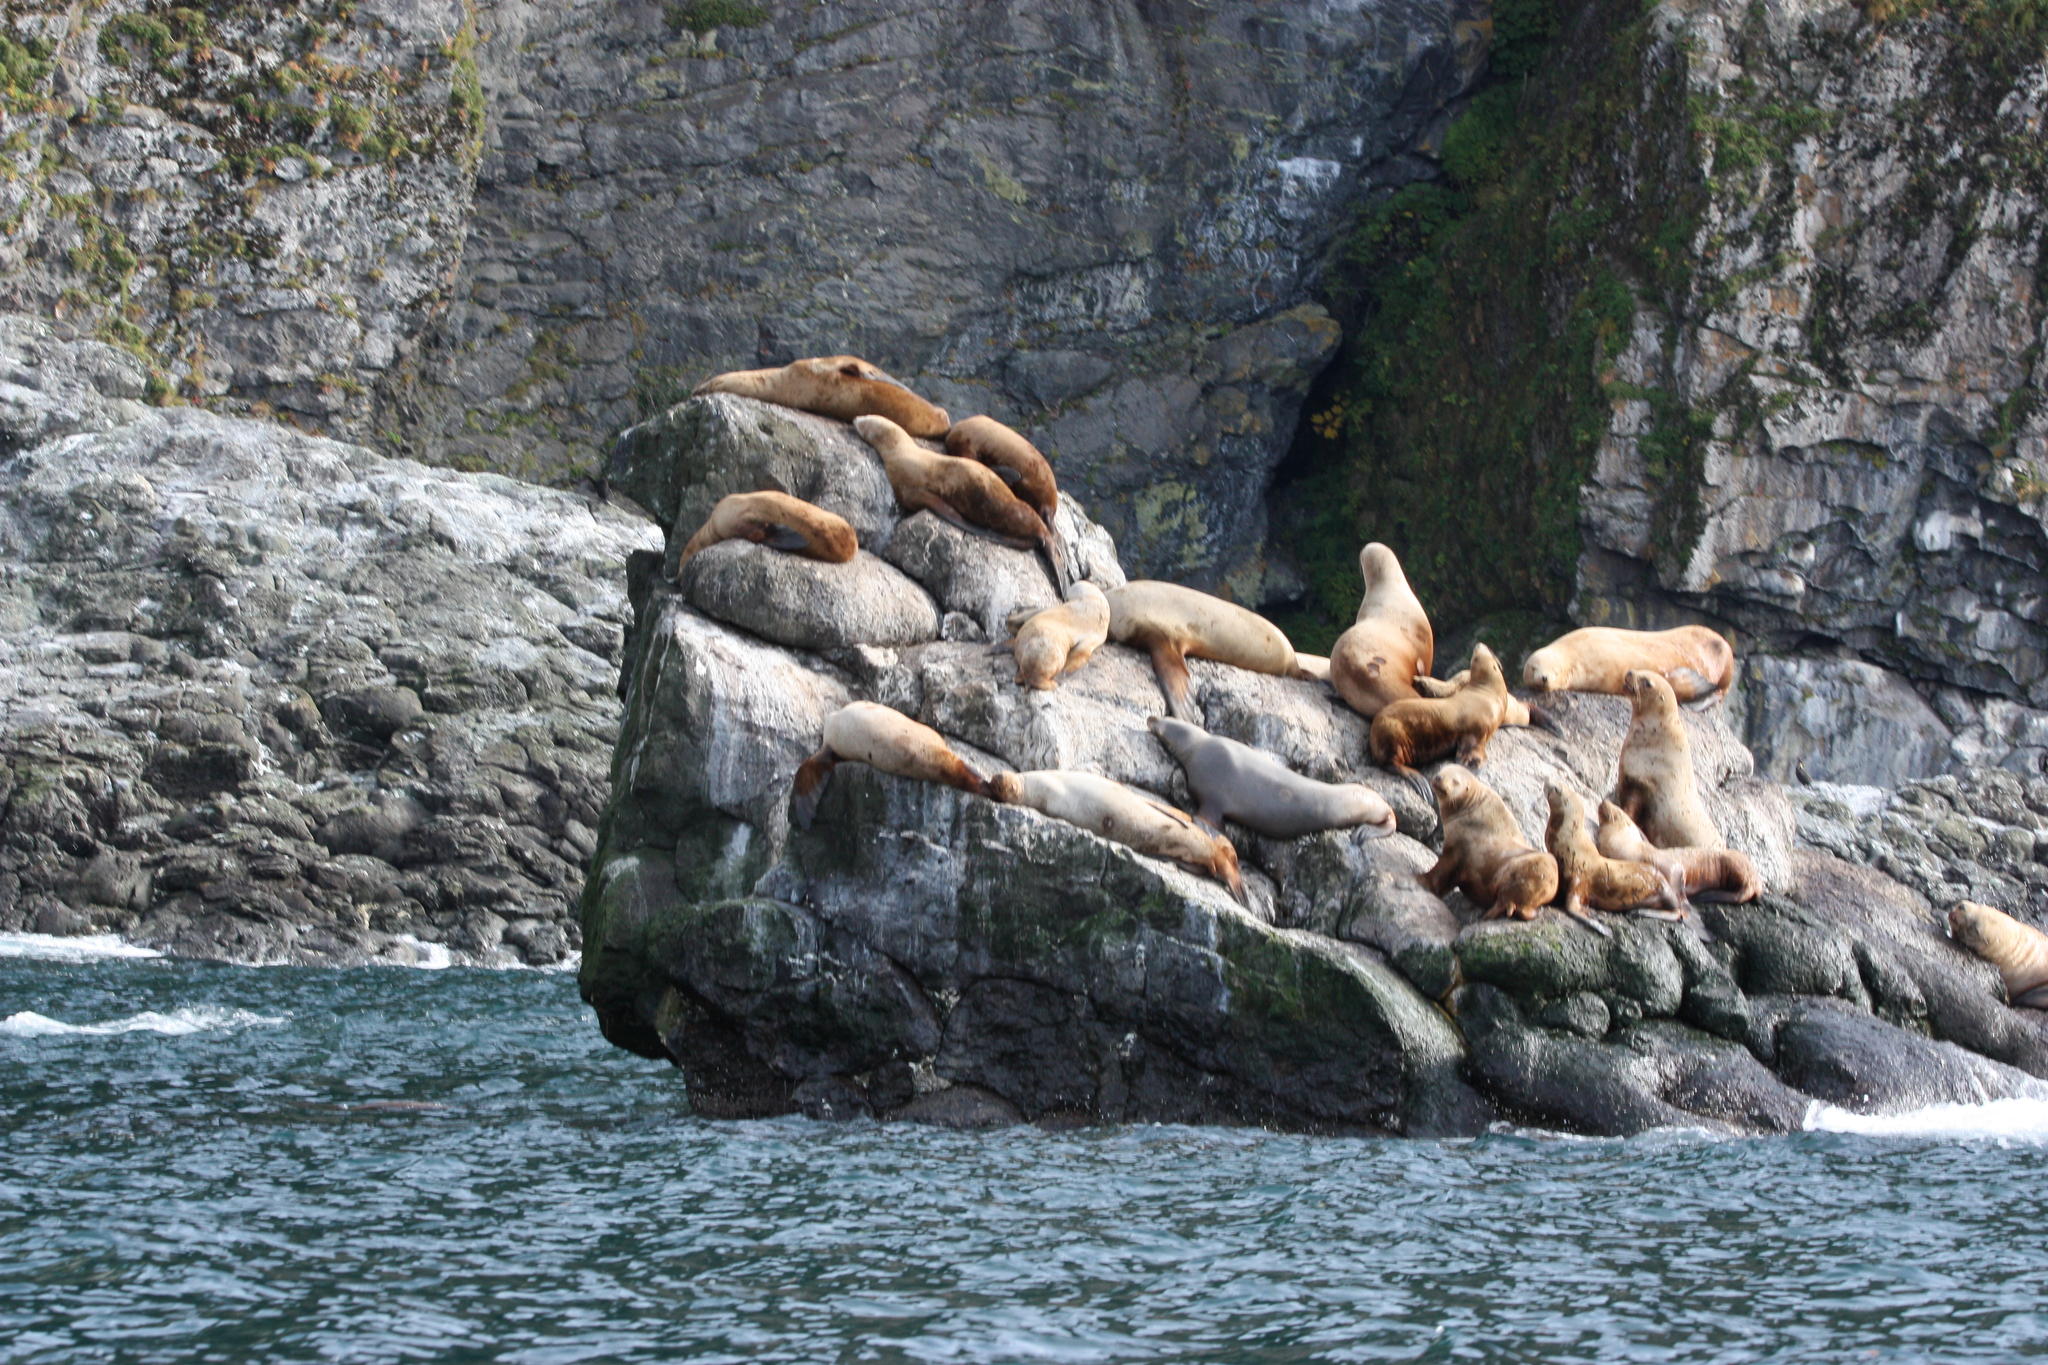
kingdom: Animalia
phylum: Chordata
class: Mammalia
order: Carnivora
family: Otariidae
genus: Eumetopias
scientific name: Eumetopias jubatus
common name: Steller sea lion
